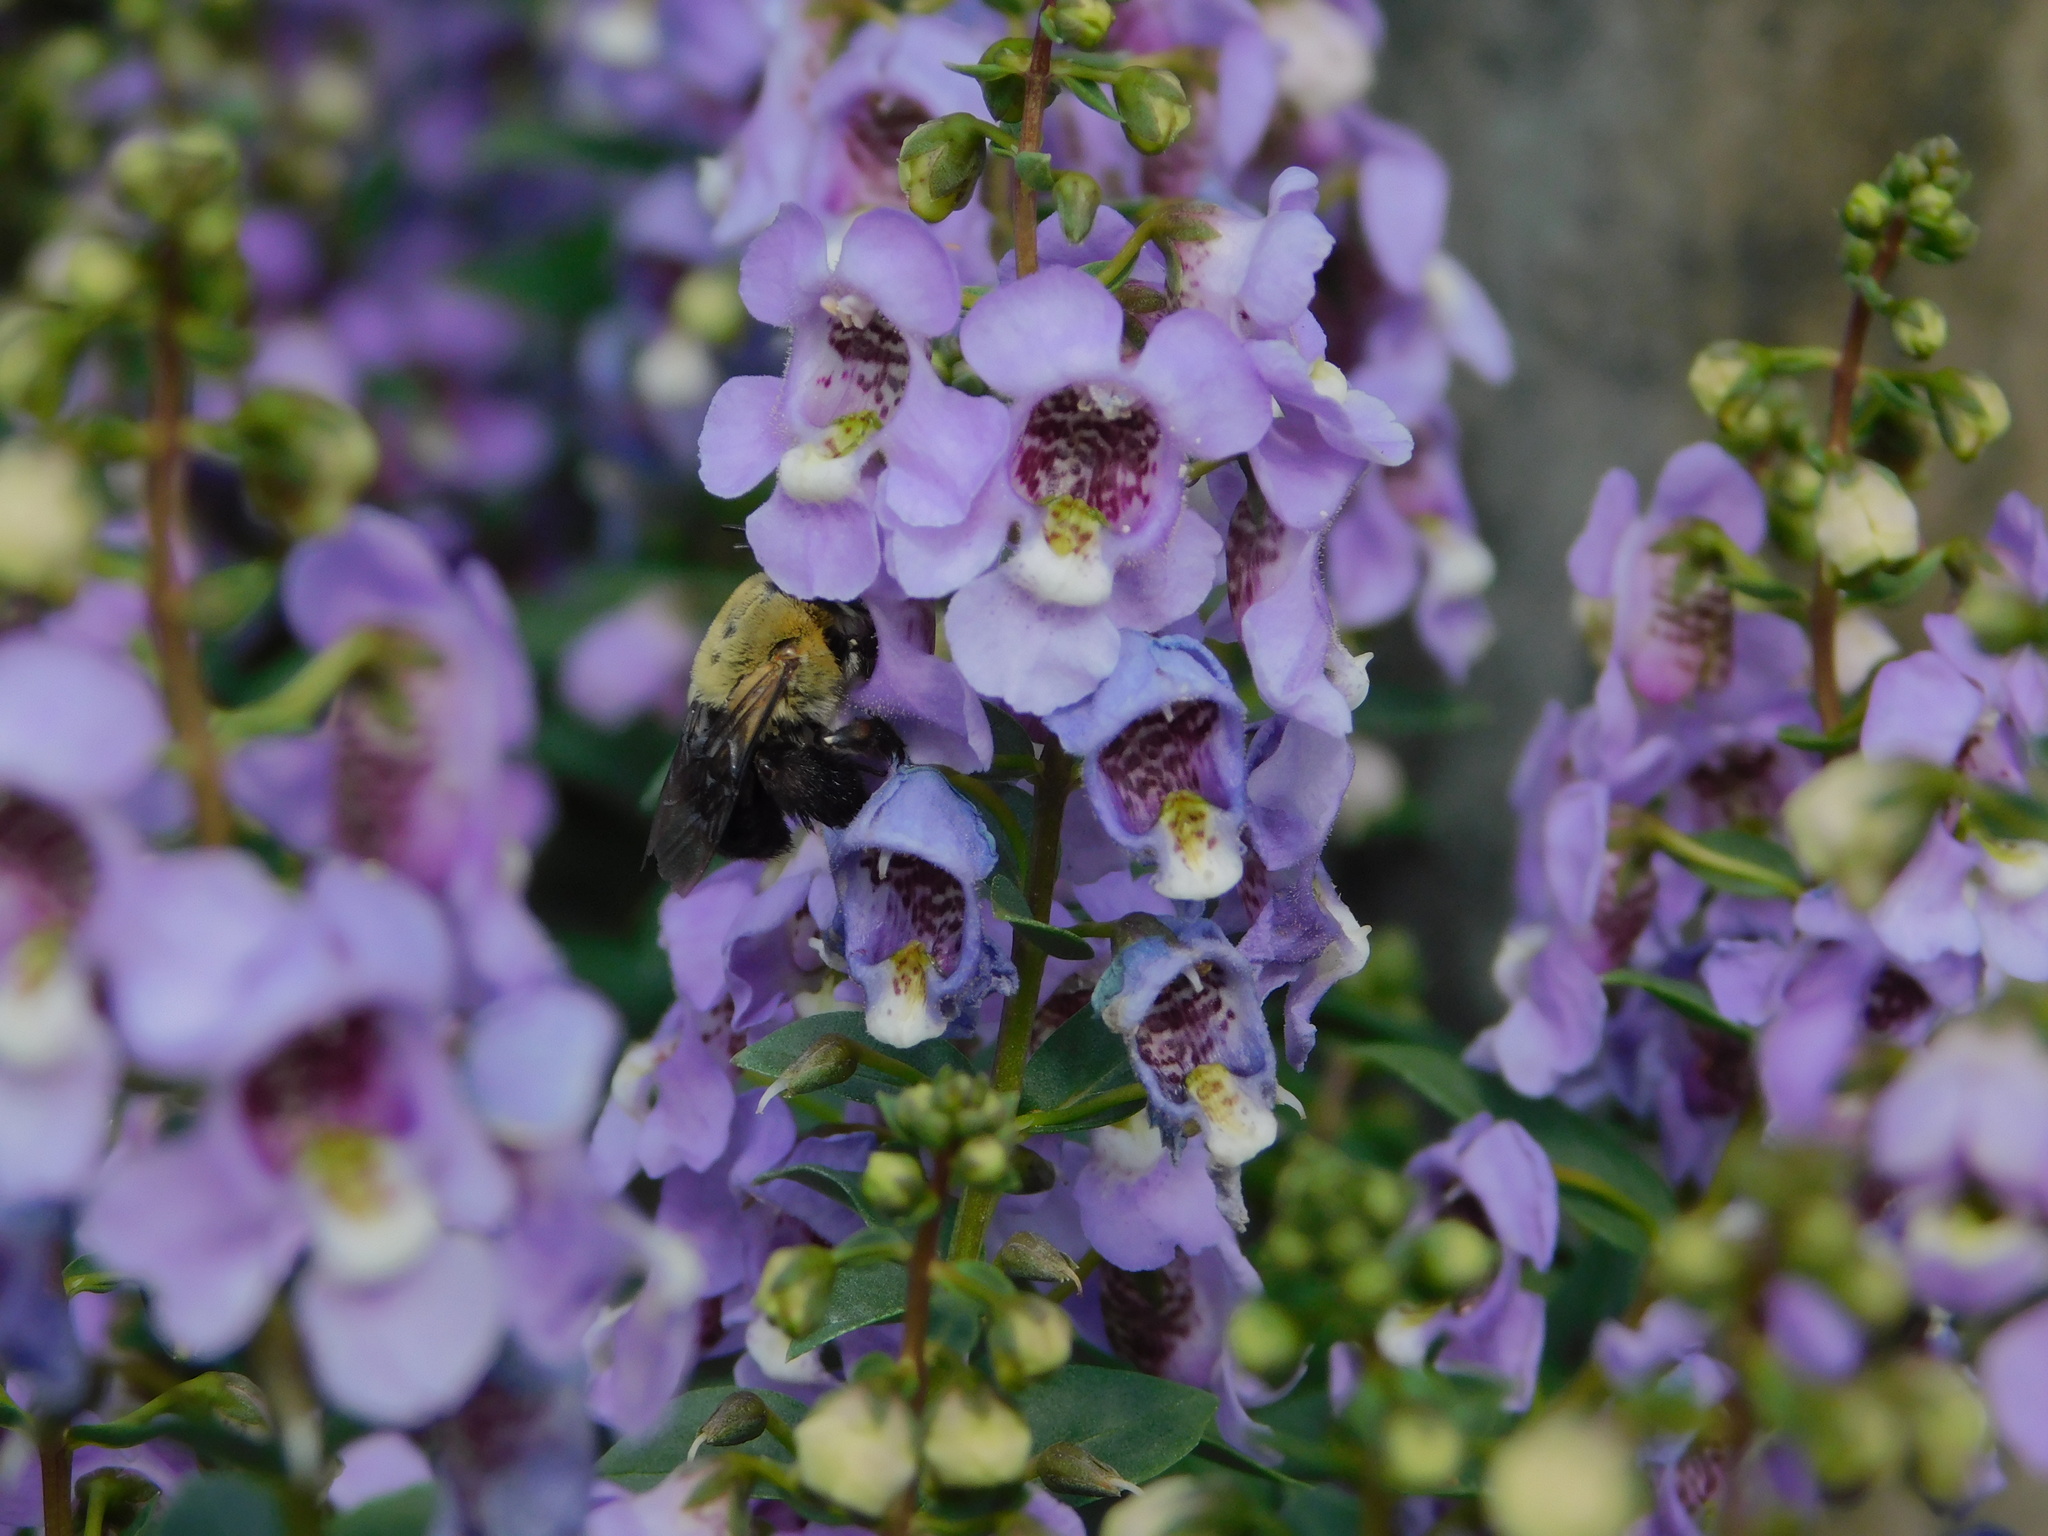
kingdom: Animalia
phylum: Arthropoda
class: Insecta
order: Hymenoptera
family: Apidae
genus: Centris
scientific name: Centris nitida
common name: Oil-collecting bee
